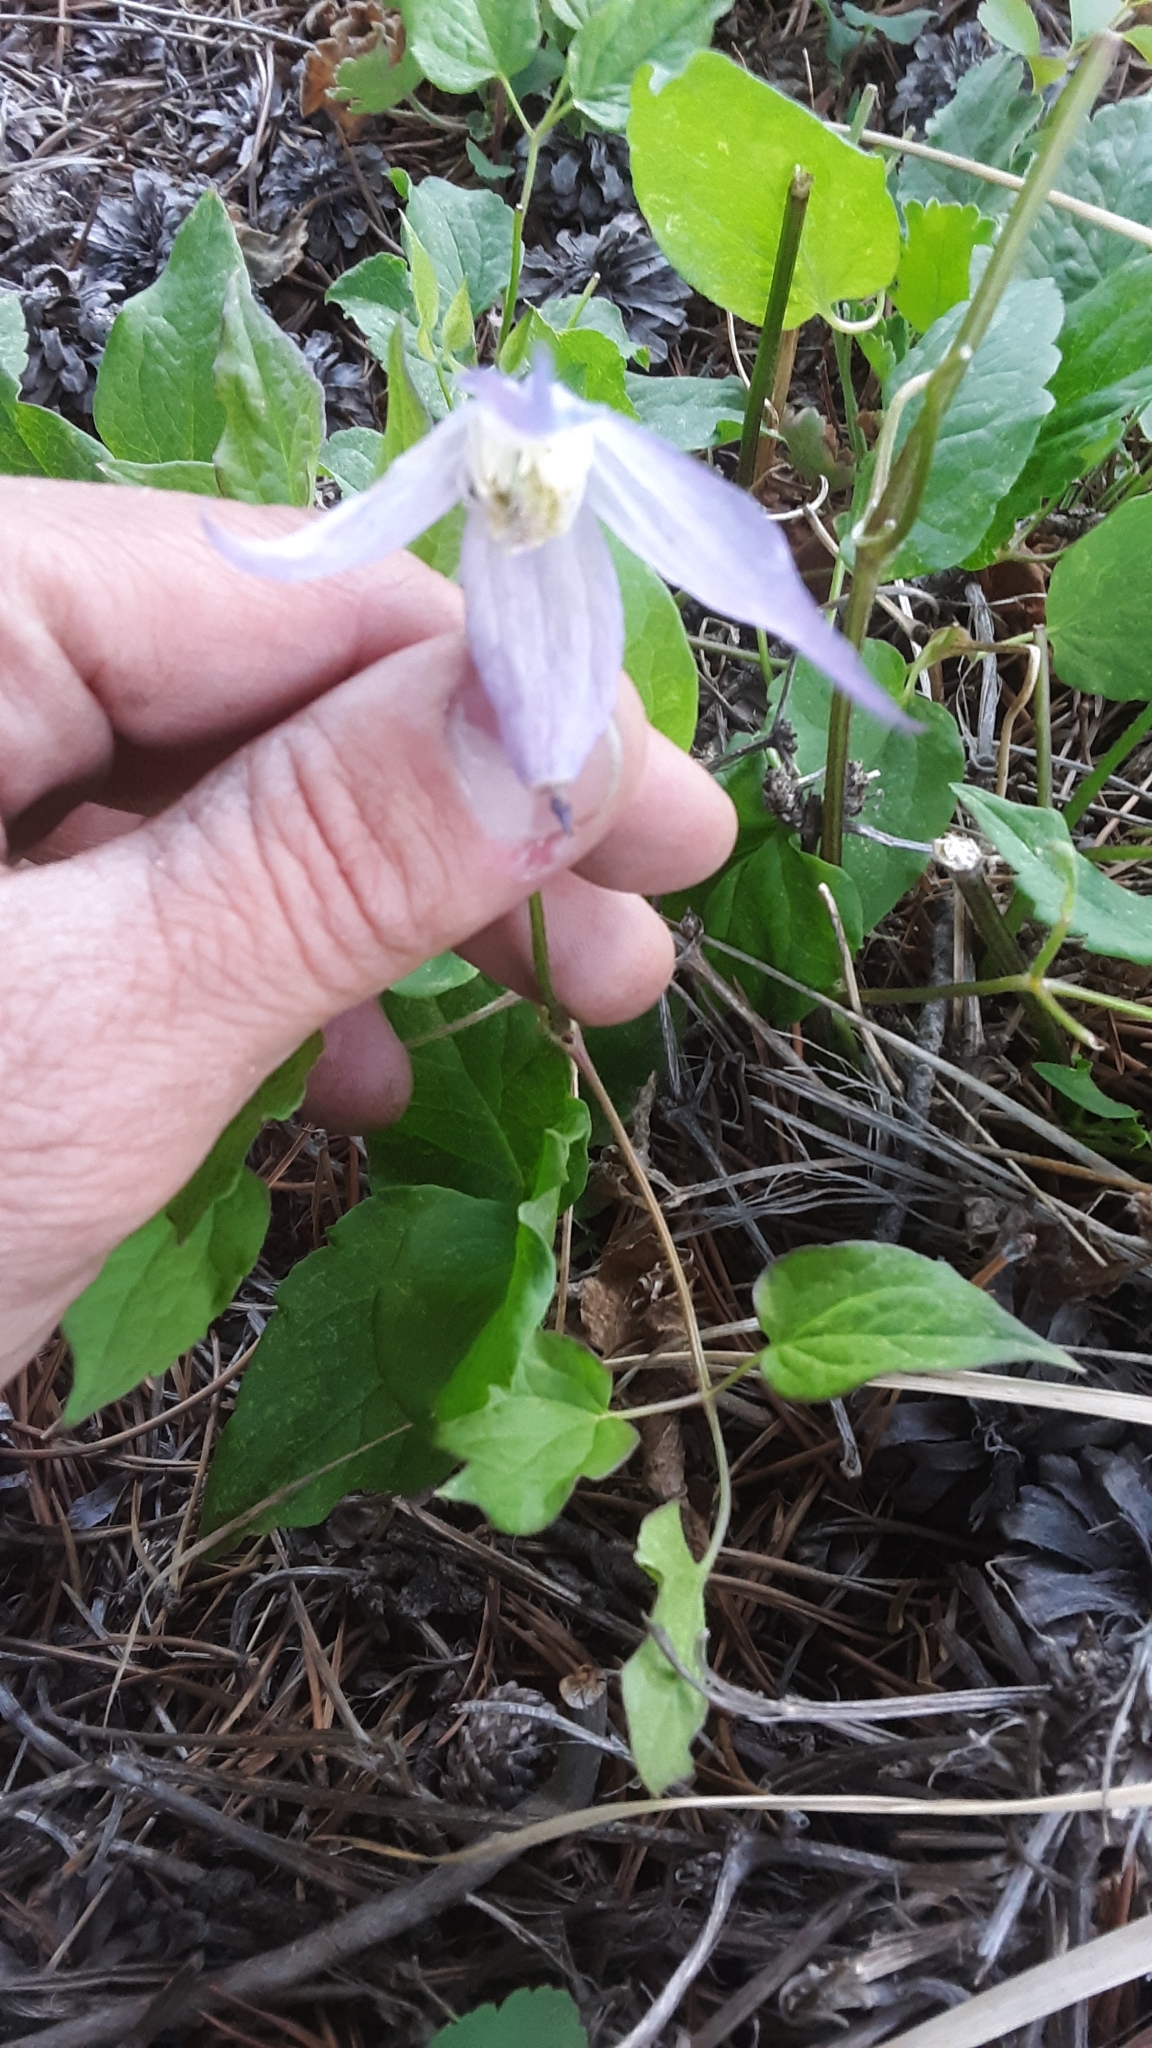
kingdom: Plantae
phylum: Tracheophyta
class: Magnoliopsida
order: Ranunculales
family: Ranunculaceae
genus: Clematis
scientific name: Clematis occidentalis
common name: Purple clematis
